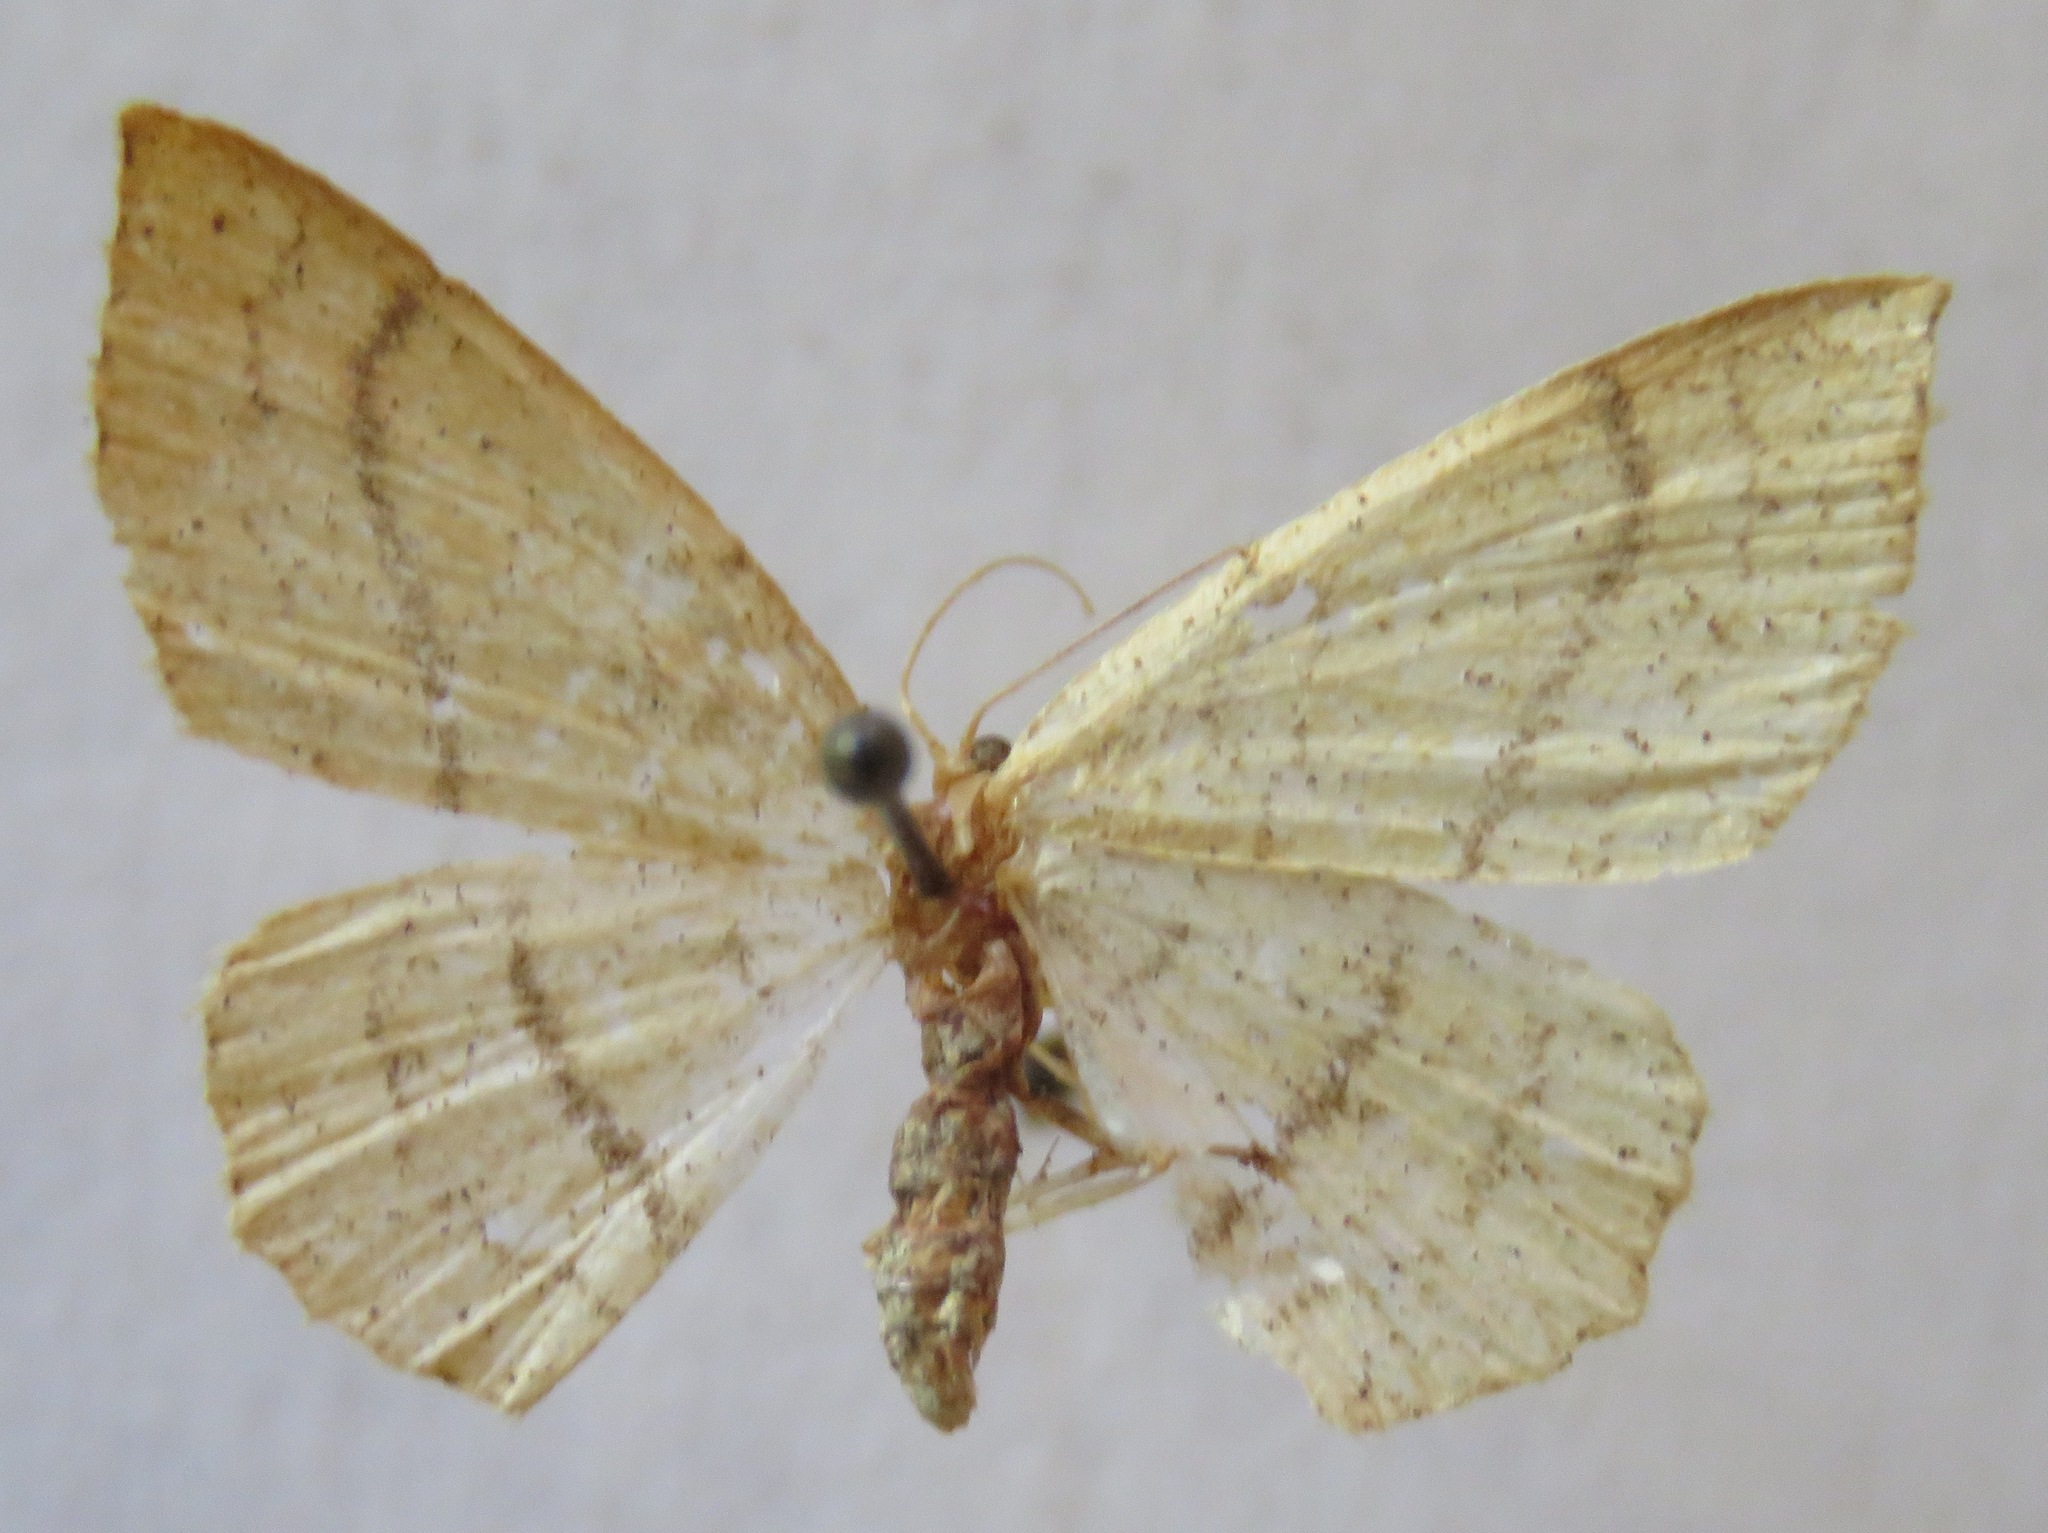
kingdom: Animalia
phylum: Arthropoda
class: Insecta
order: Lepidoptera
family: Geometridae
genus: Cyclophora
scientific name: Cyclophora linearia
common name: Clay triple-lines
